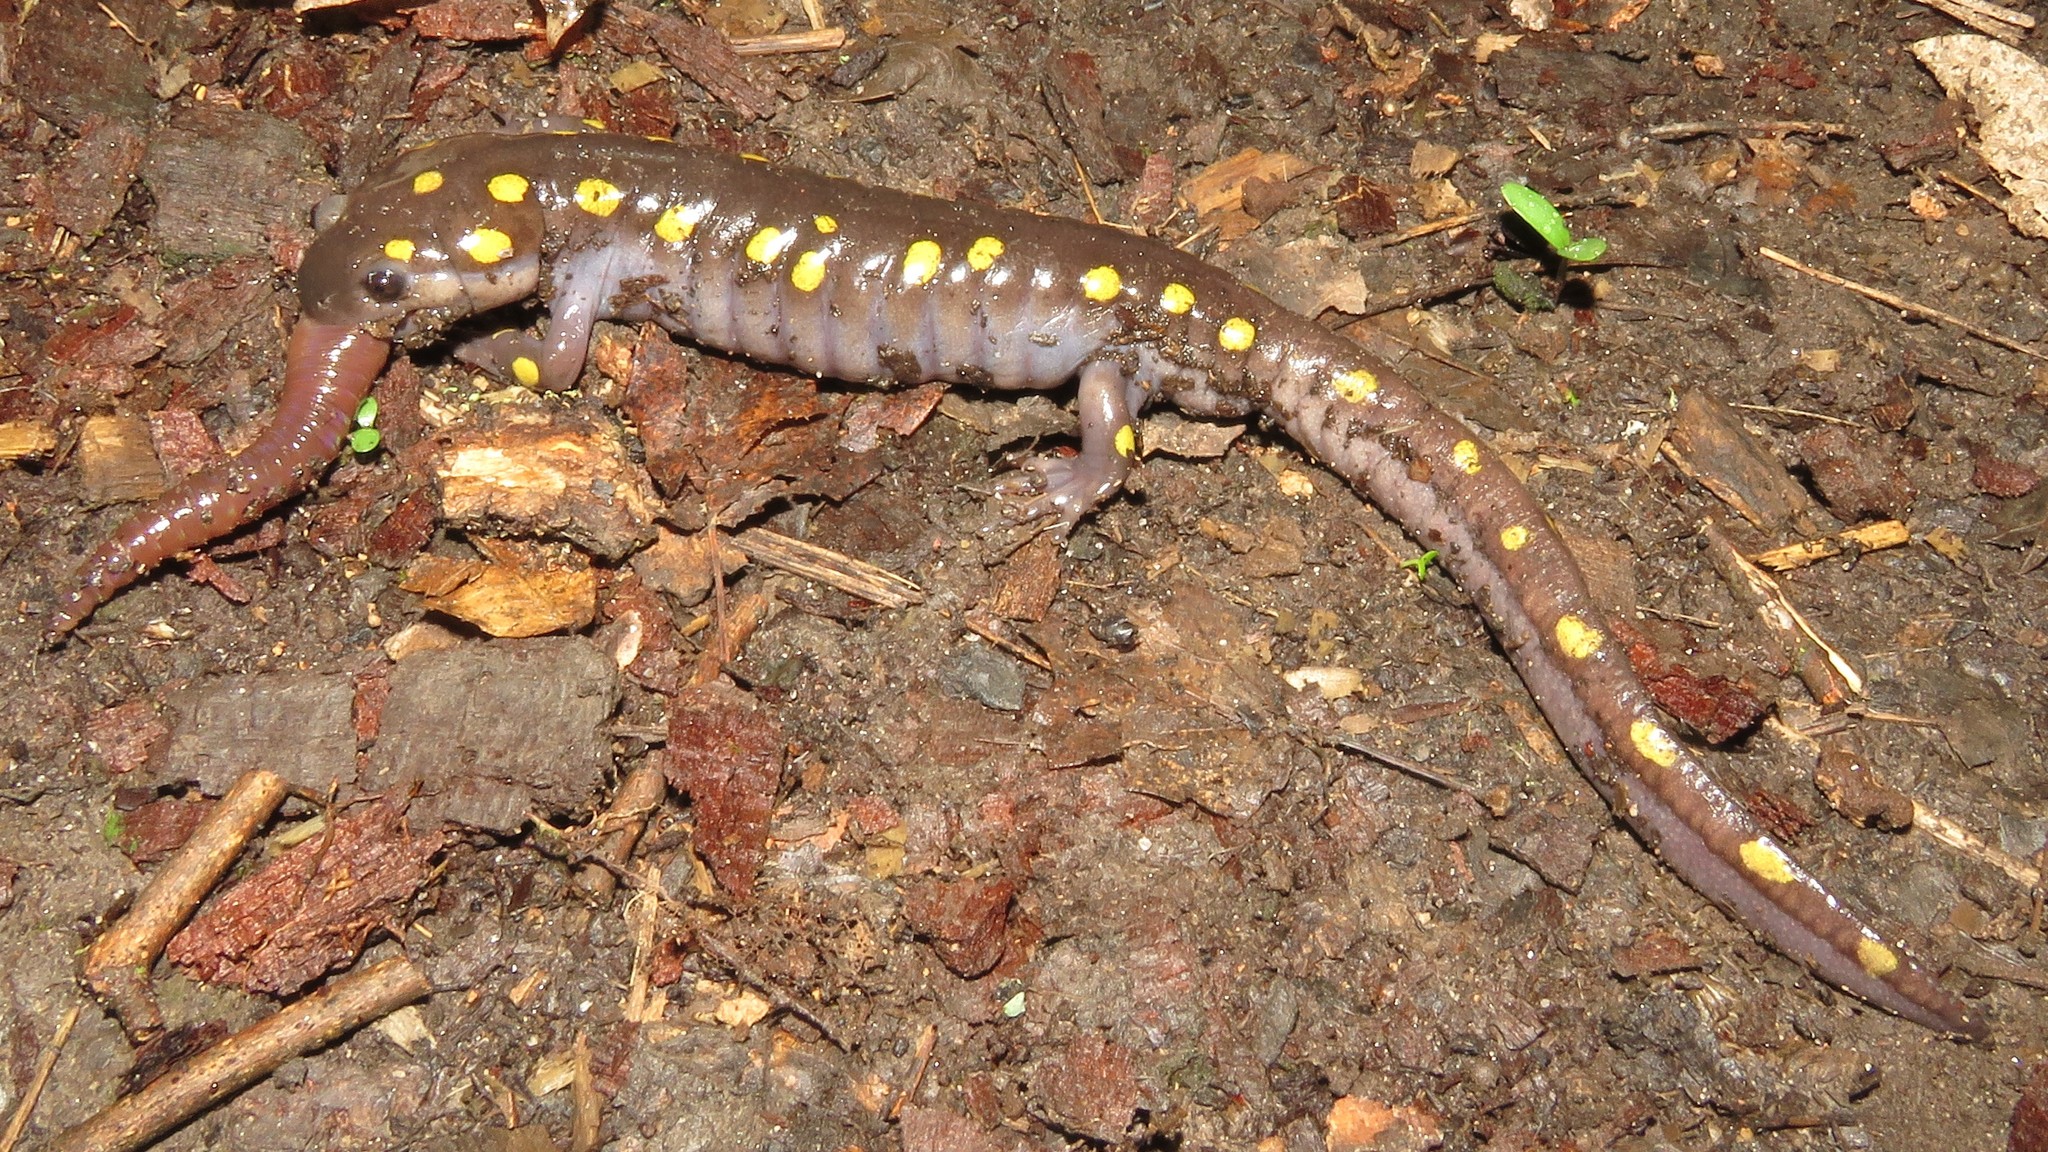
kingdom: Animalia
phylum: Chordata
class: Amphibia
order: Caudata
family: Ambystomatidae
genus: Ambystoma
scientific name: Ambystoma maculatum
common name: Spotted salamander
